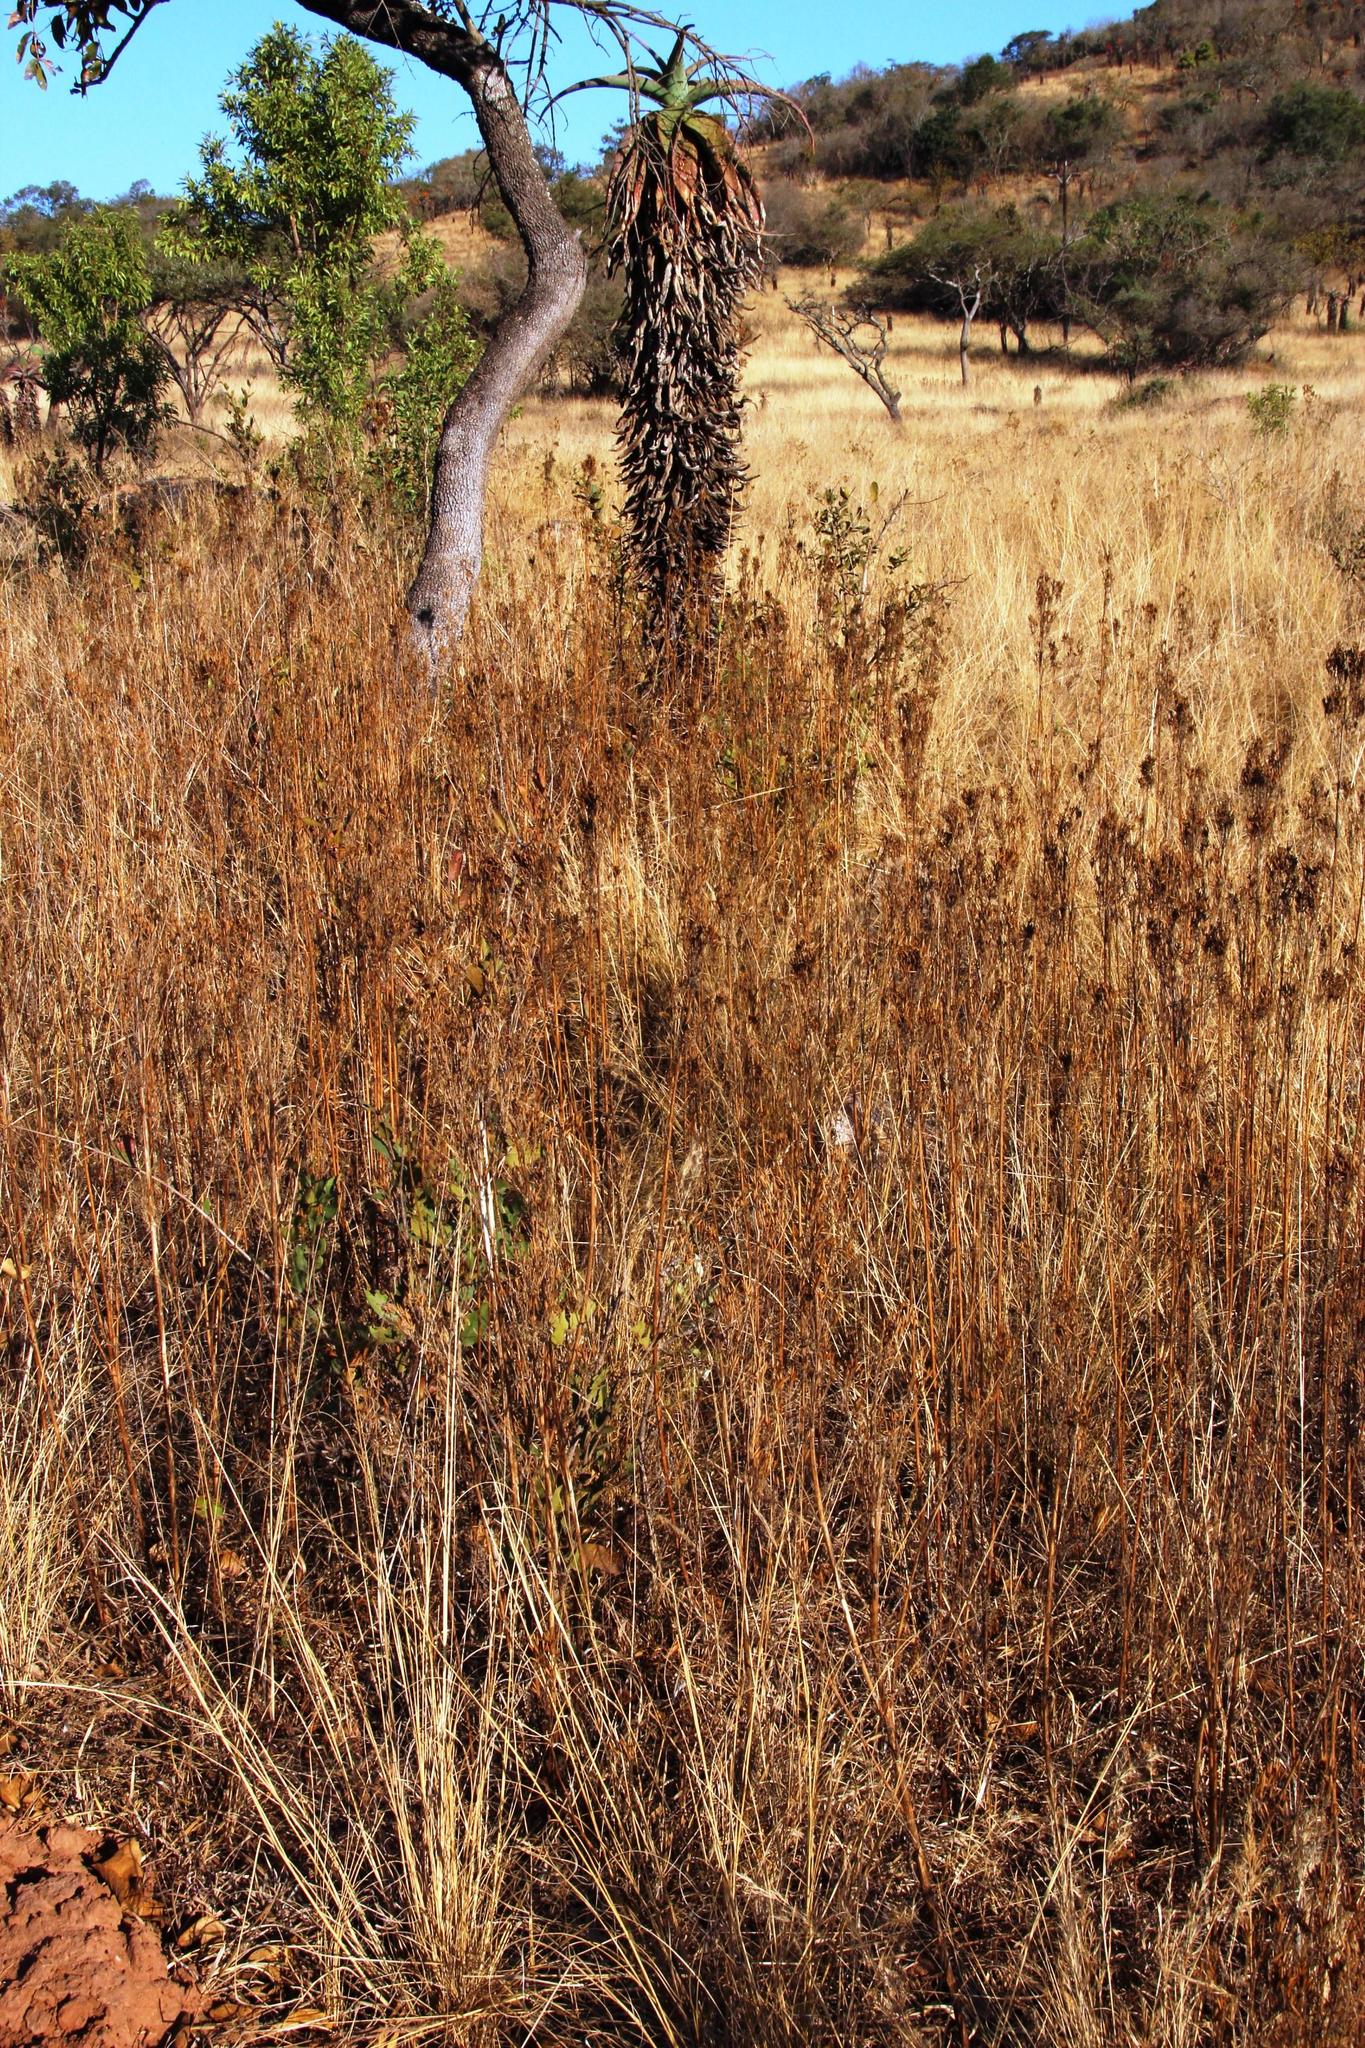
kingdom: Plantae
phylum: Tracheophyta
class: Magnoliopsida
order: Asterales
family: Asteraceae
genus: Tagetes
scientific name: Tagetes minuta
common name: Muster john henry
